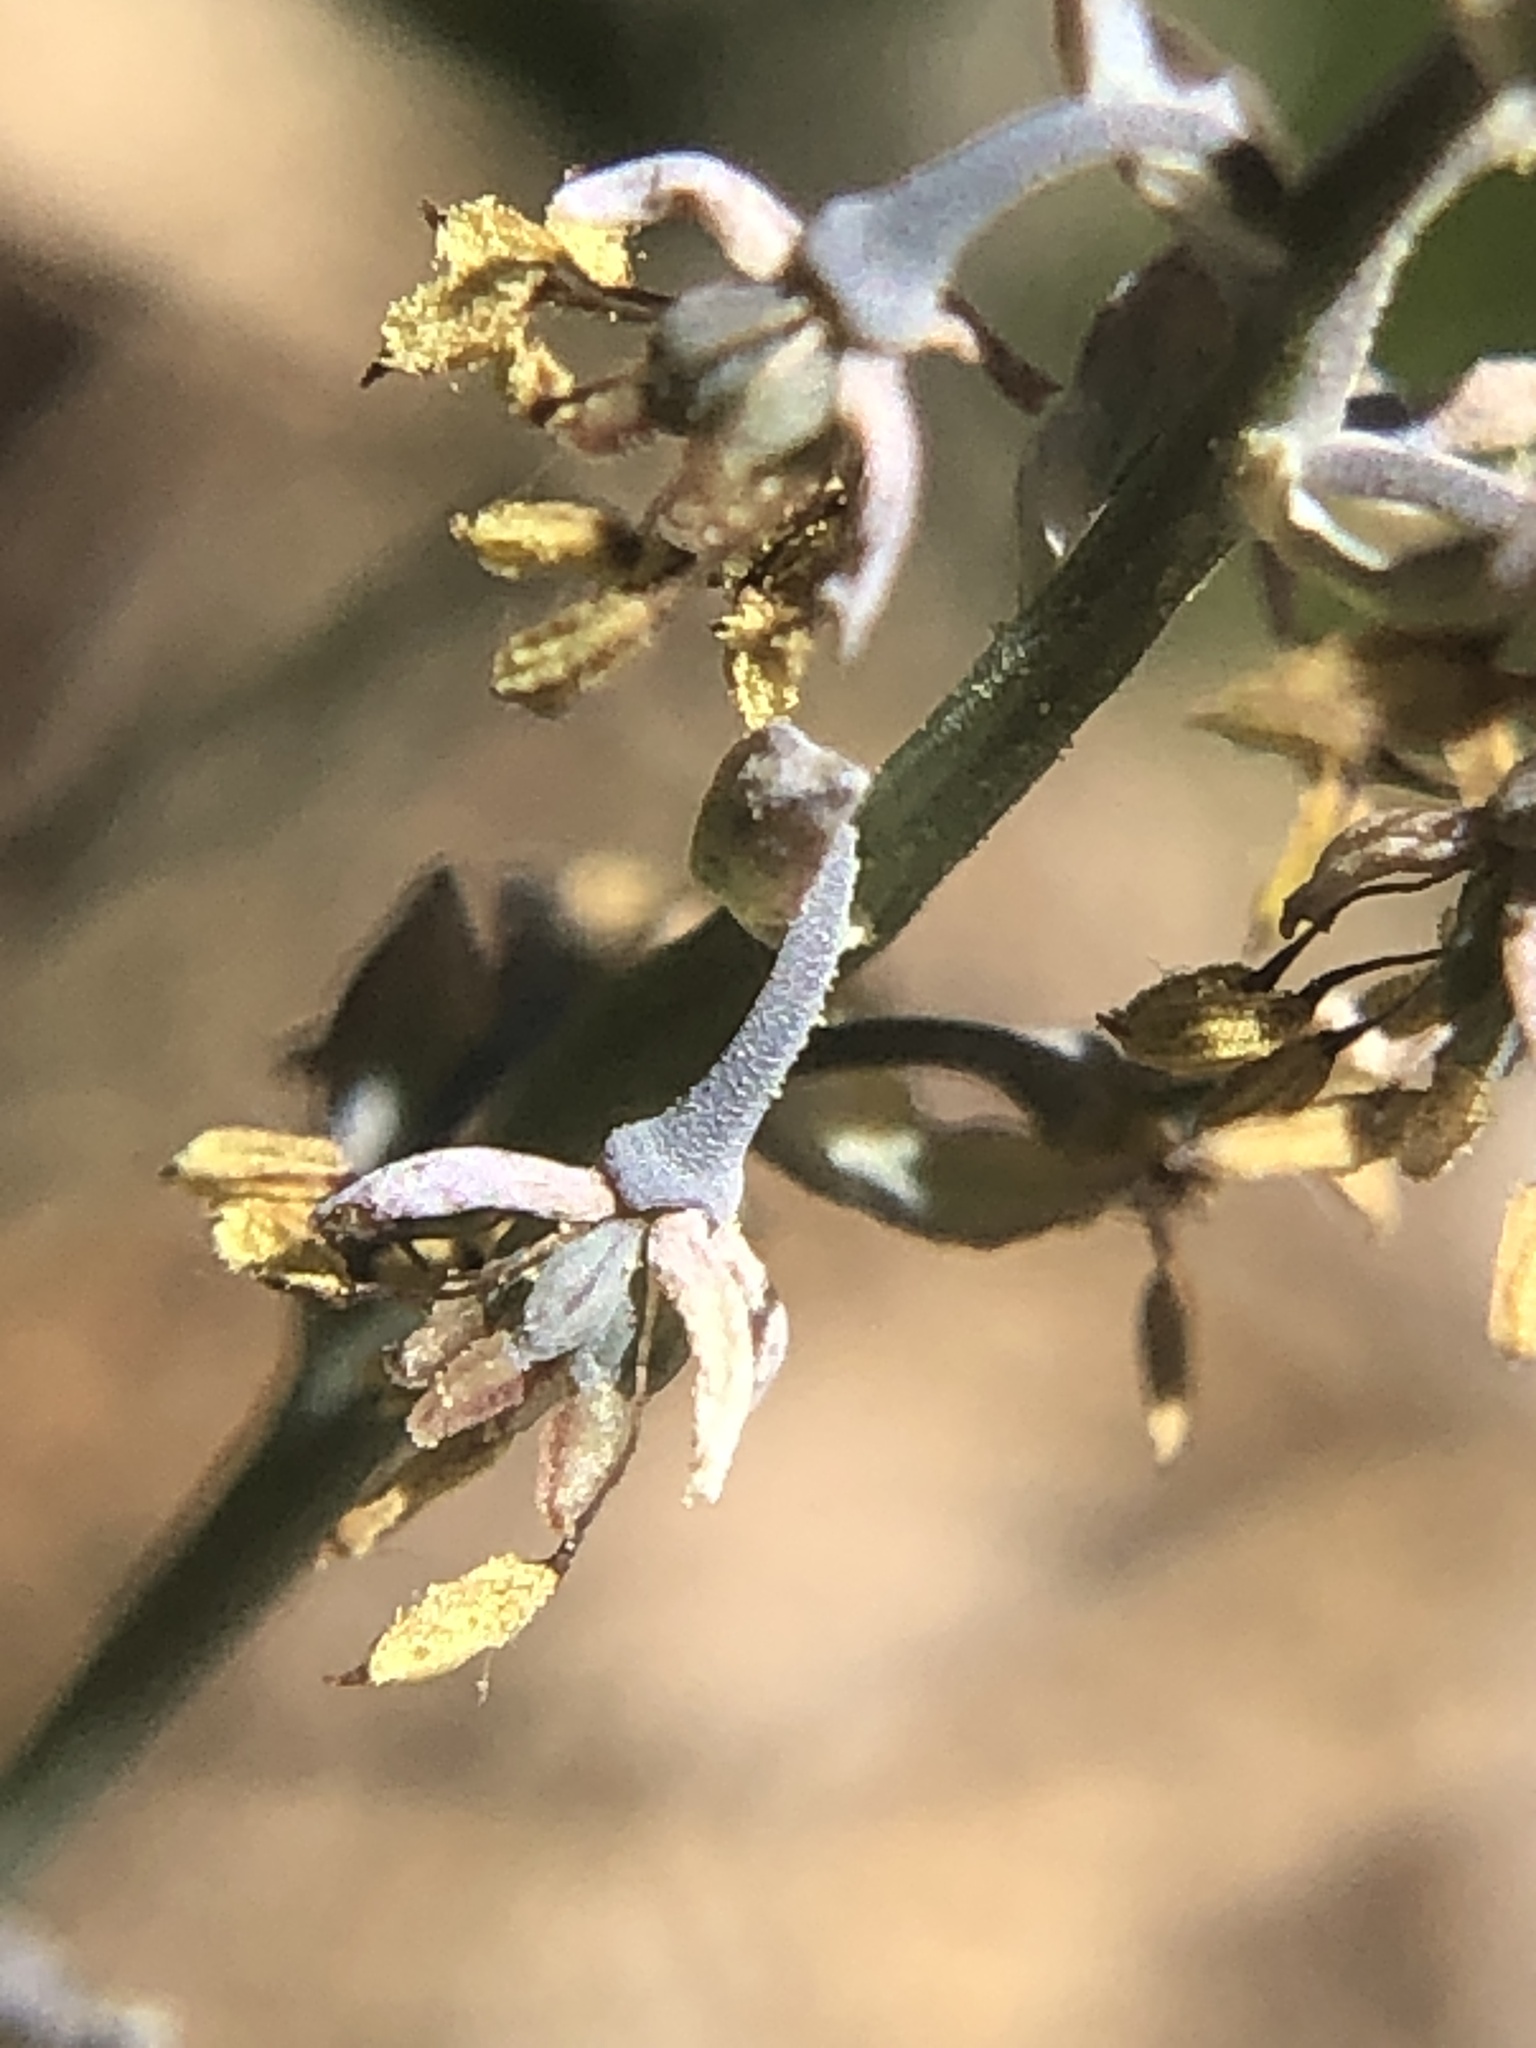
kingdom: Plantae
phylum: Tracheophyta
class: Magnoliopsida
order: Ranunculales
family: Ranunculaceae
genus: Thalictrum
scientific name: Thalictrum alpinum
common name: Alpine meadow-rue
